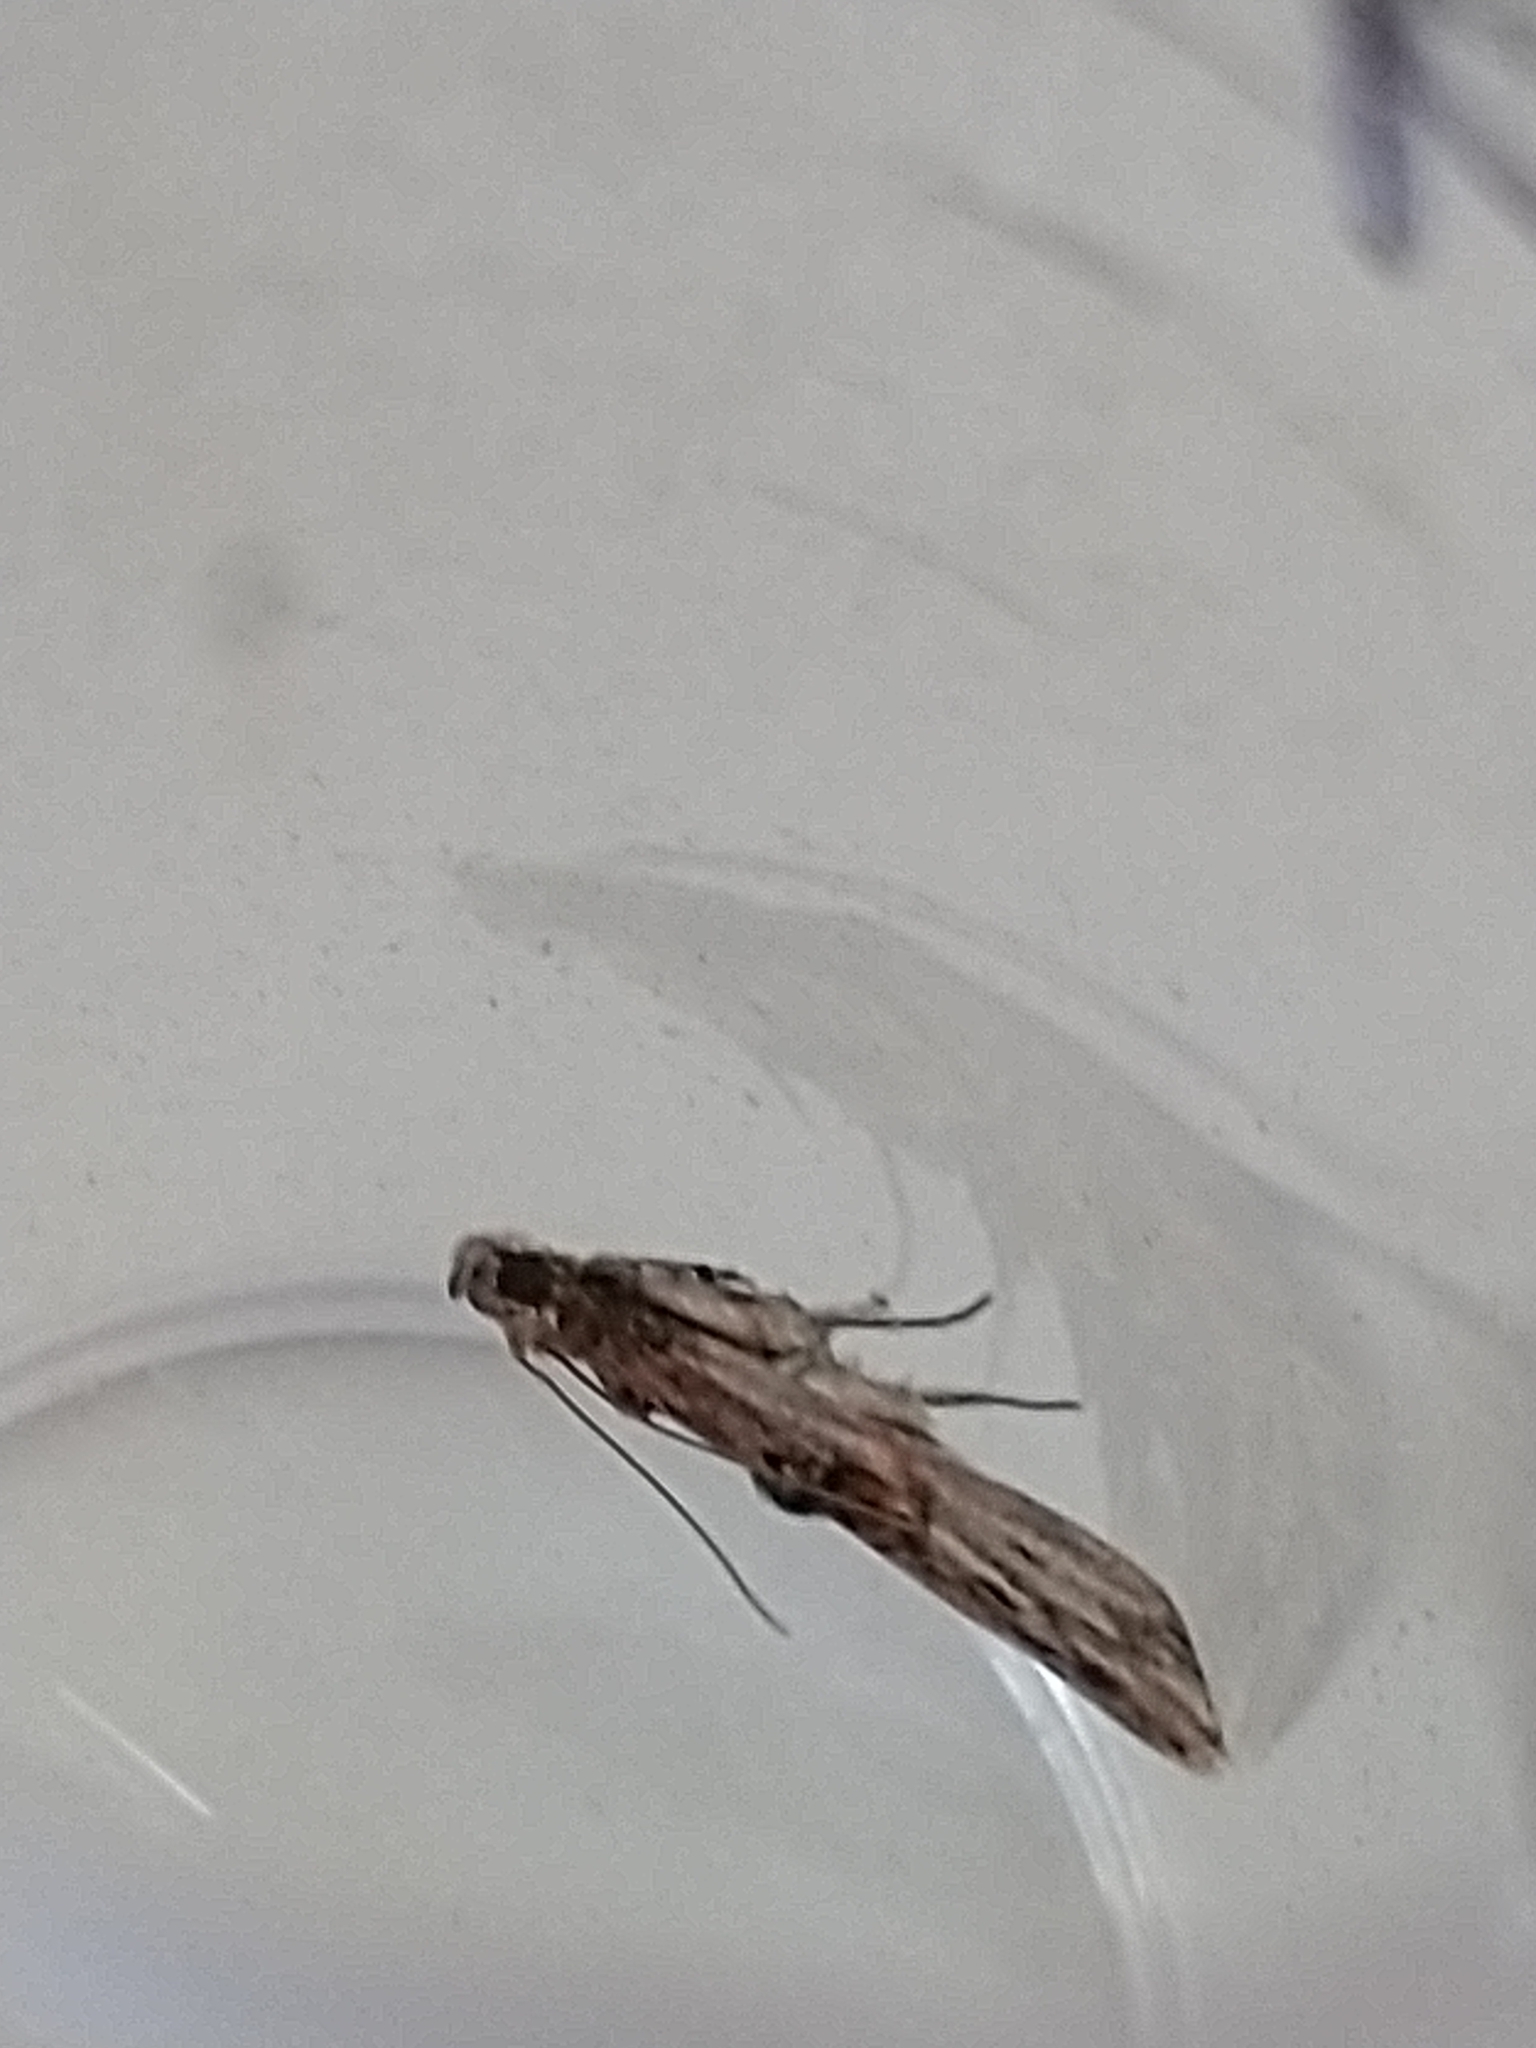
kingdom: Animalia
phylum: Arthropoda
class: Insecta
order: Lepidoptera
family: Pyralidae
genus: Nephopterix
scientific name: Nephopterix angustella
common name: Spindle knot-horn
